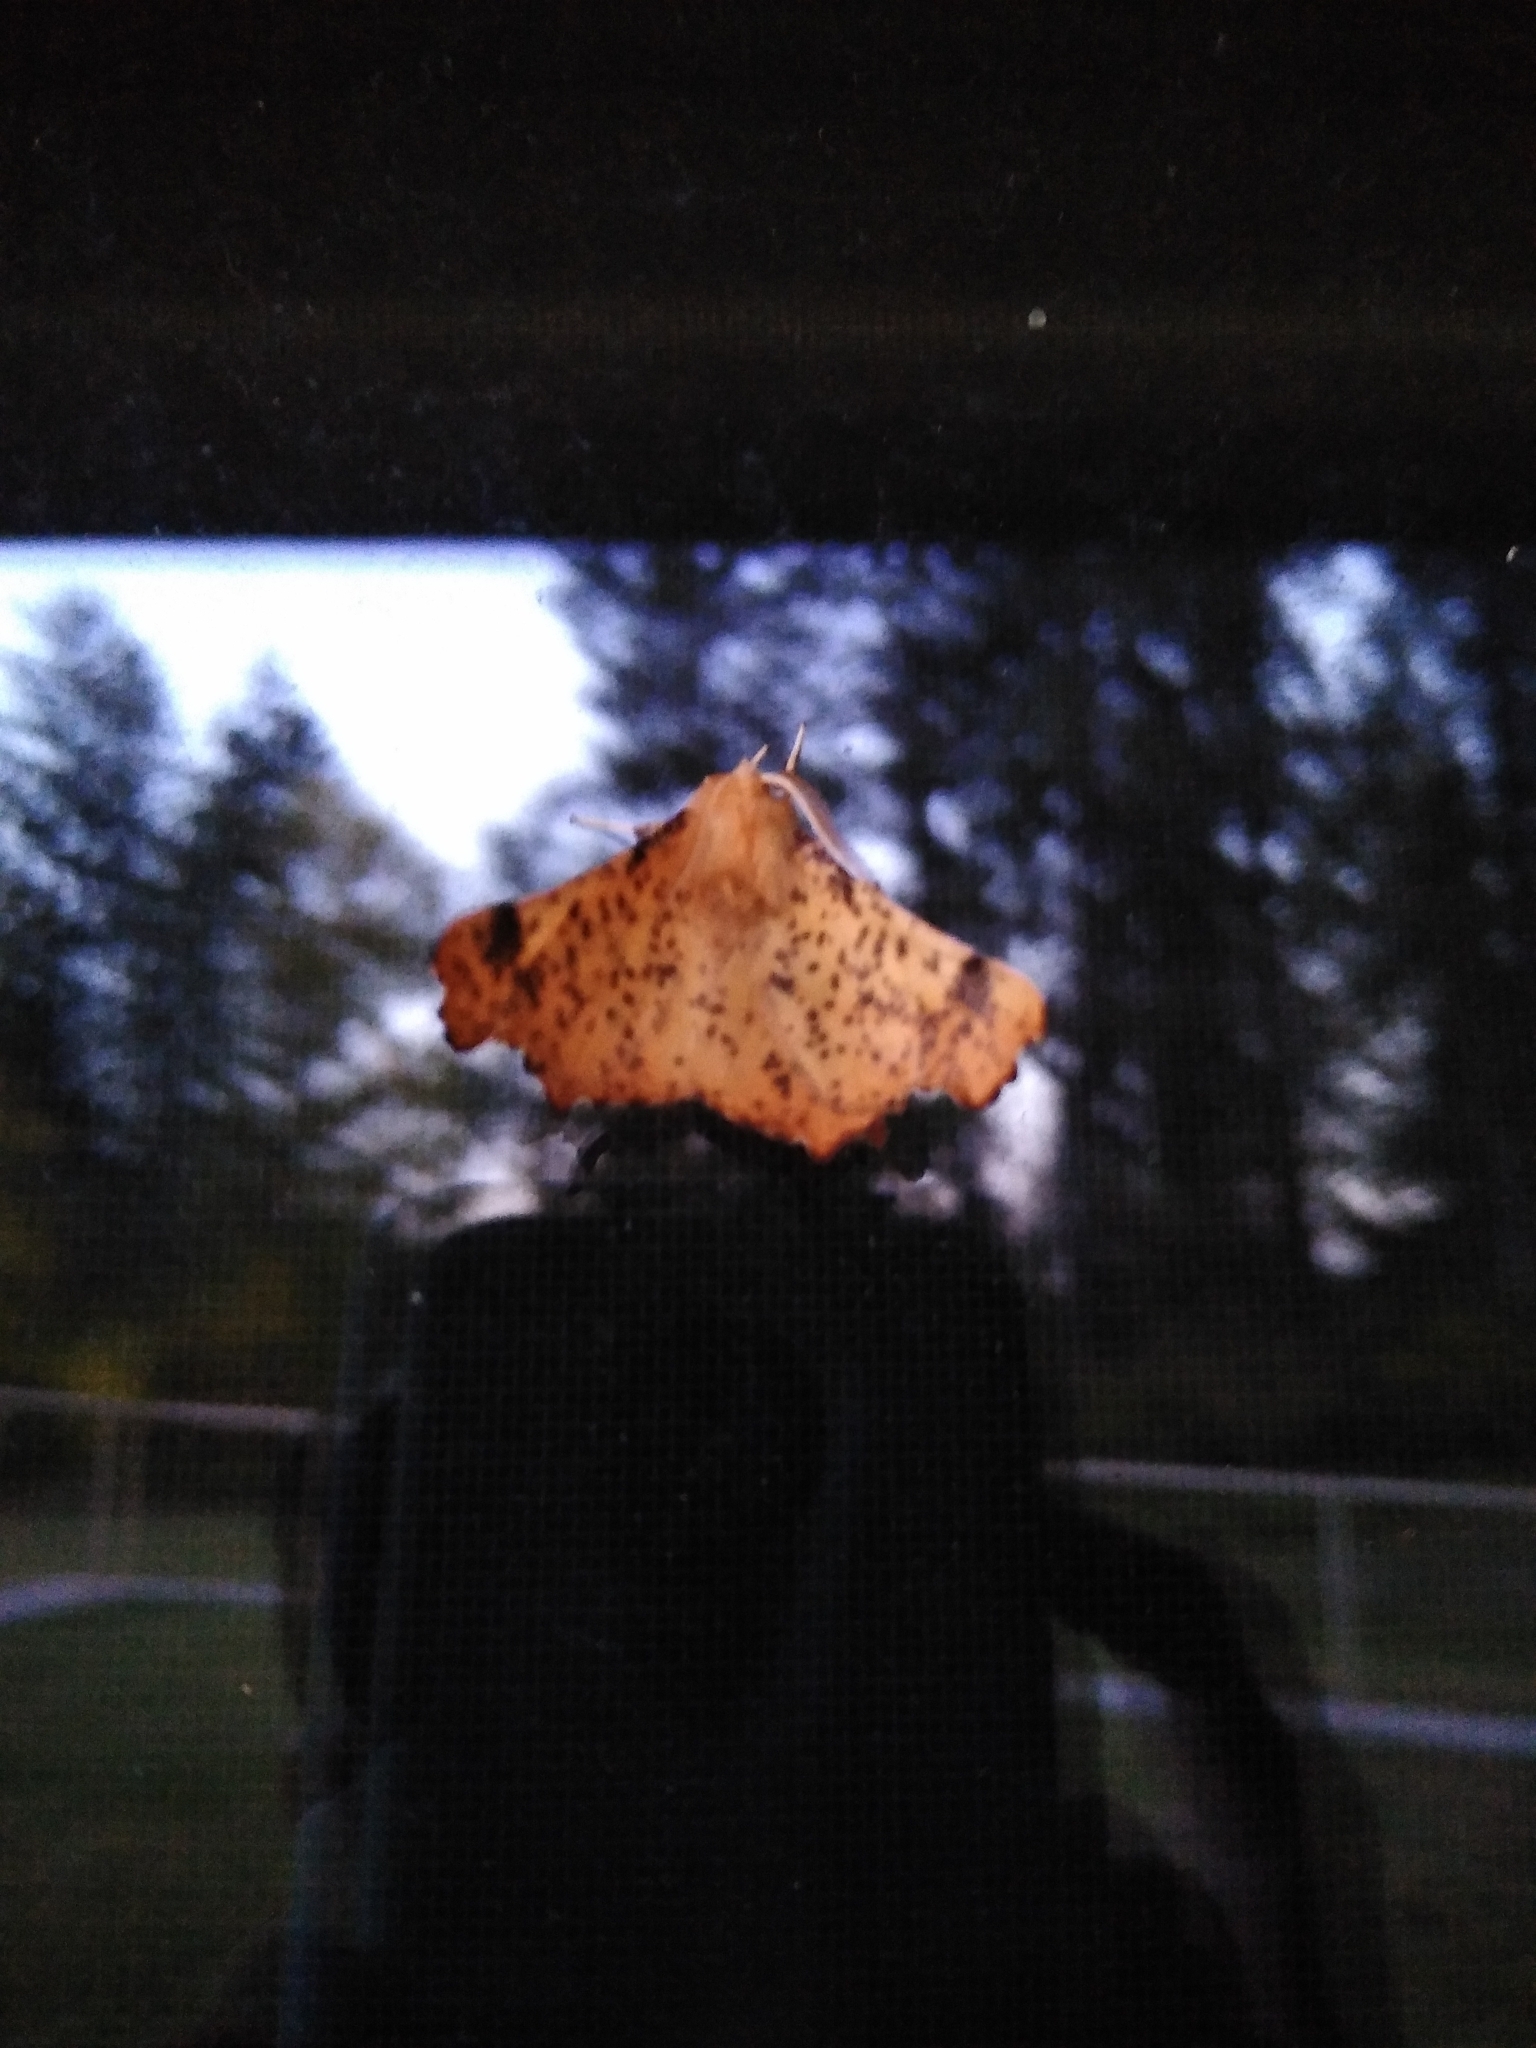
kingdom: Animalia
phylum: Arthropoda
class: Insecta
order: Lepidoptera
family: Geometridae
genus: Ennomos
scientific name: Ennomos magnaria
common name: Maple spanworm
